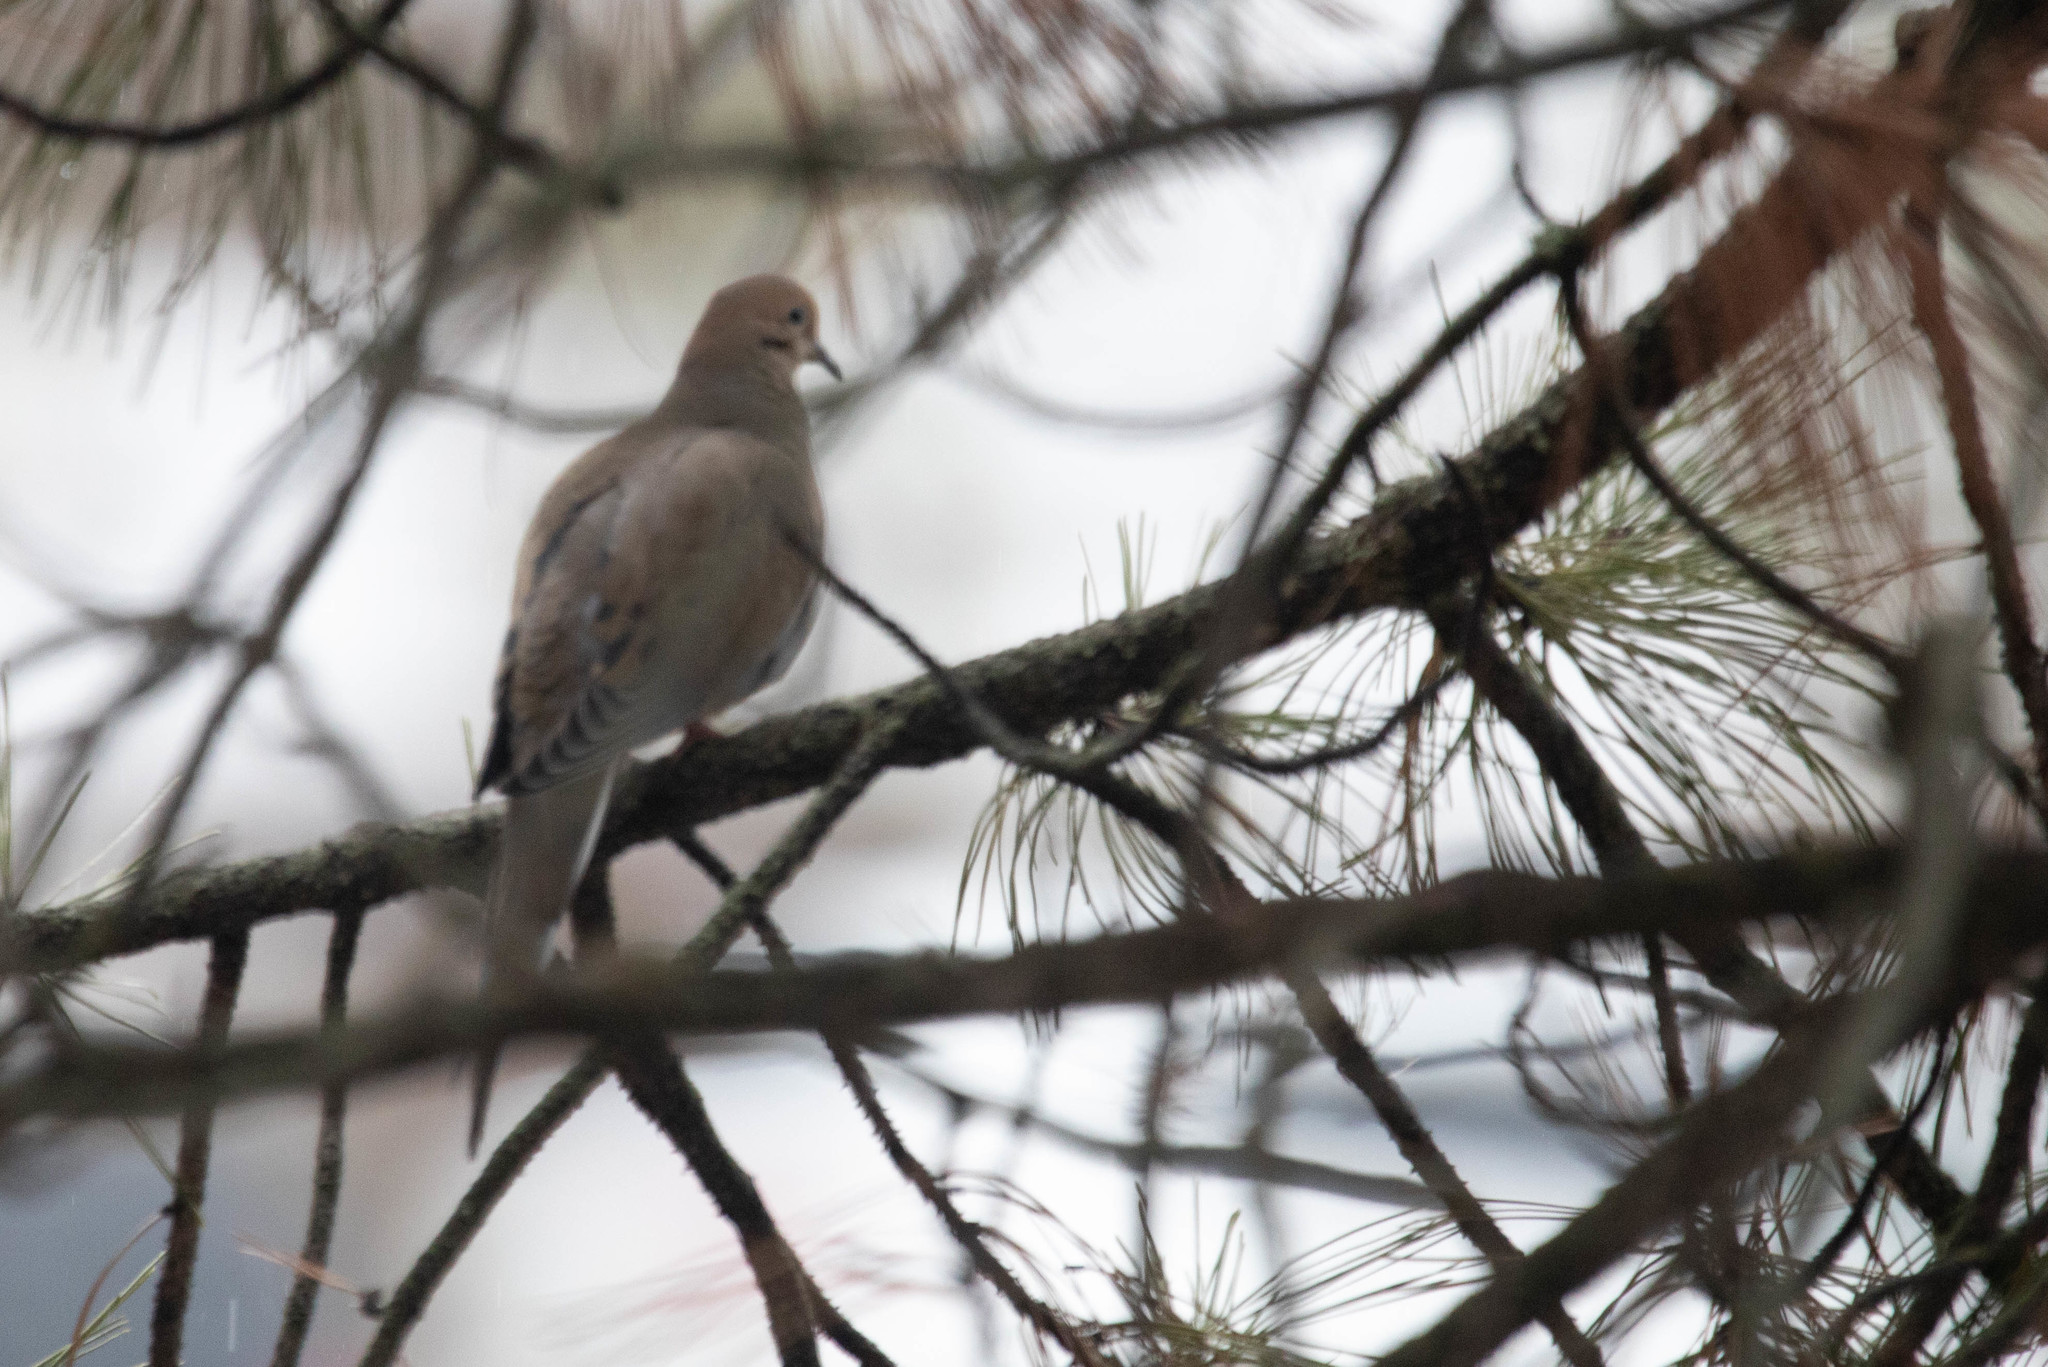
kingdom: Animalia
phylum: Chordata
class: Aves
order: Columbiformes
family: Columbidae
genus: Zenaida
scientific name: Zenaida macroura
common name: Mourning dove
